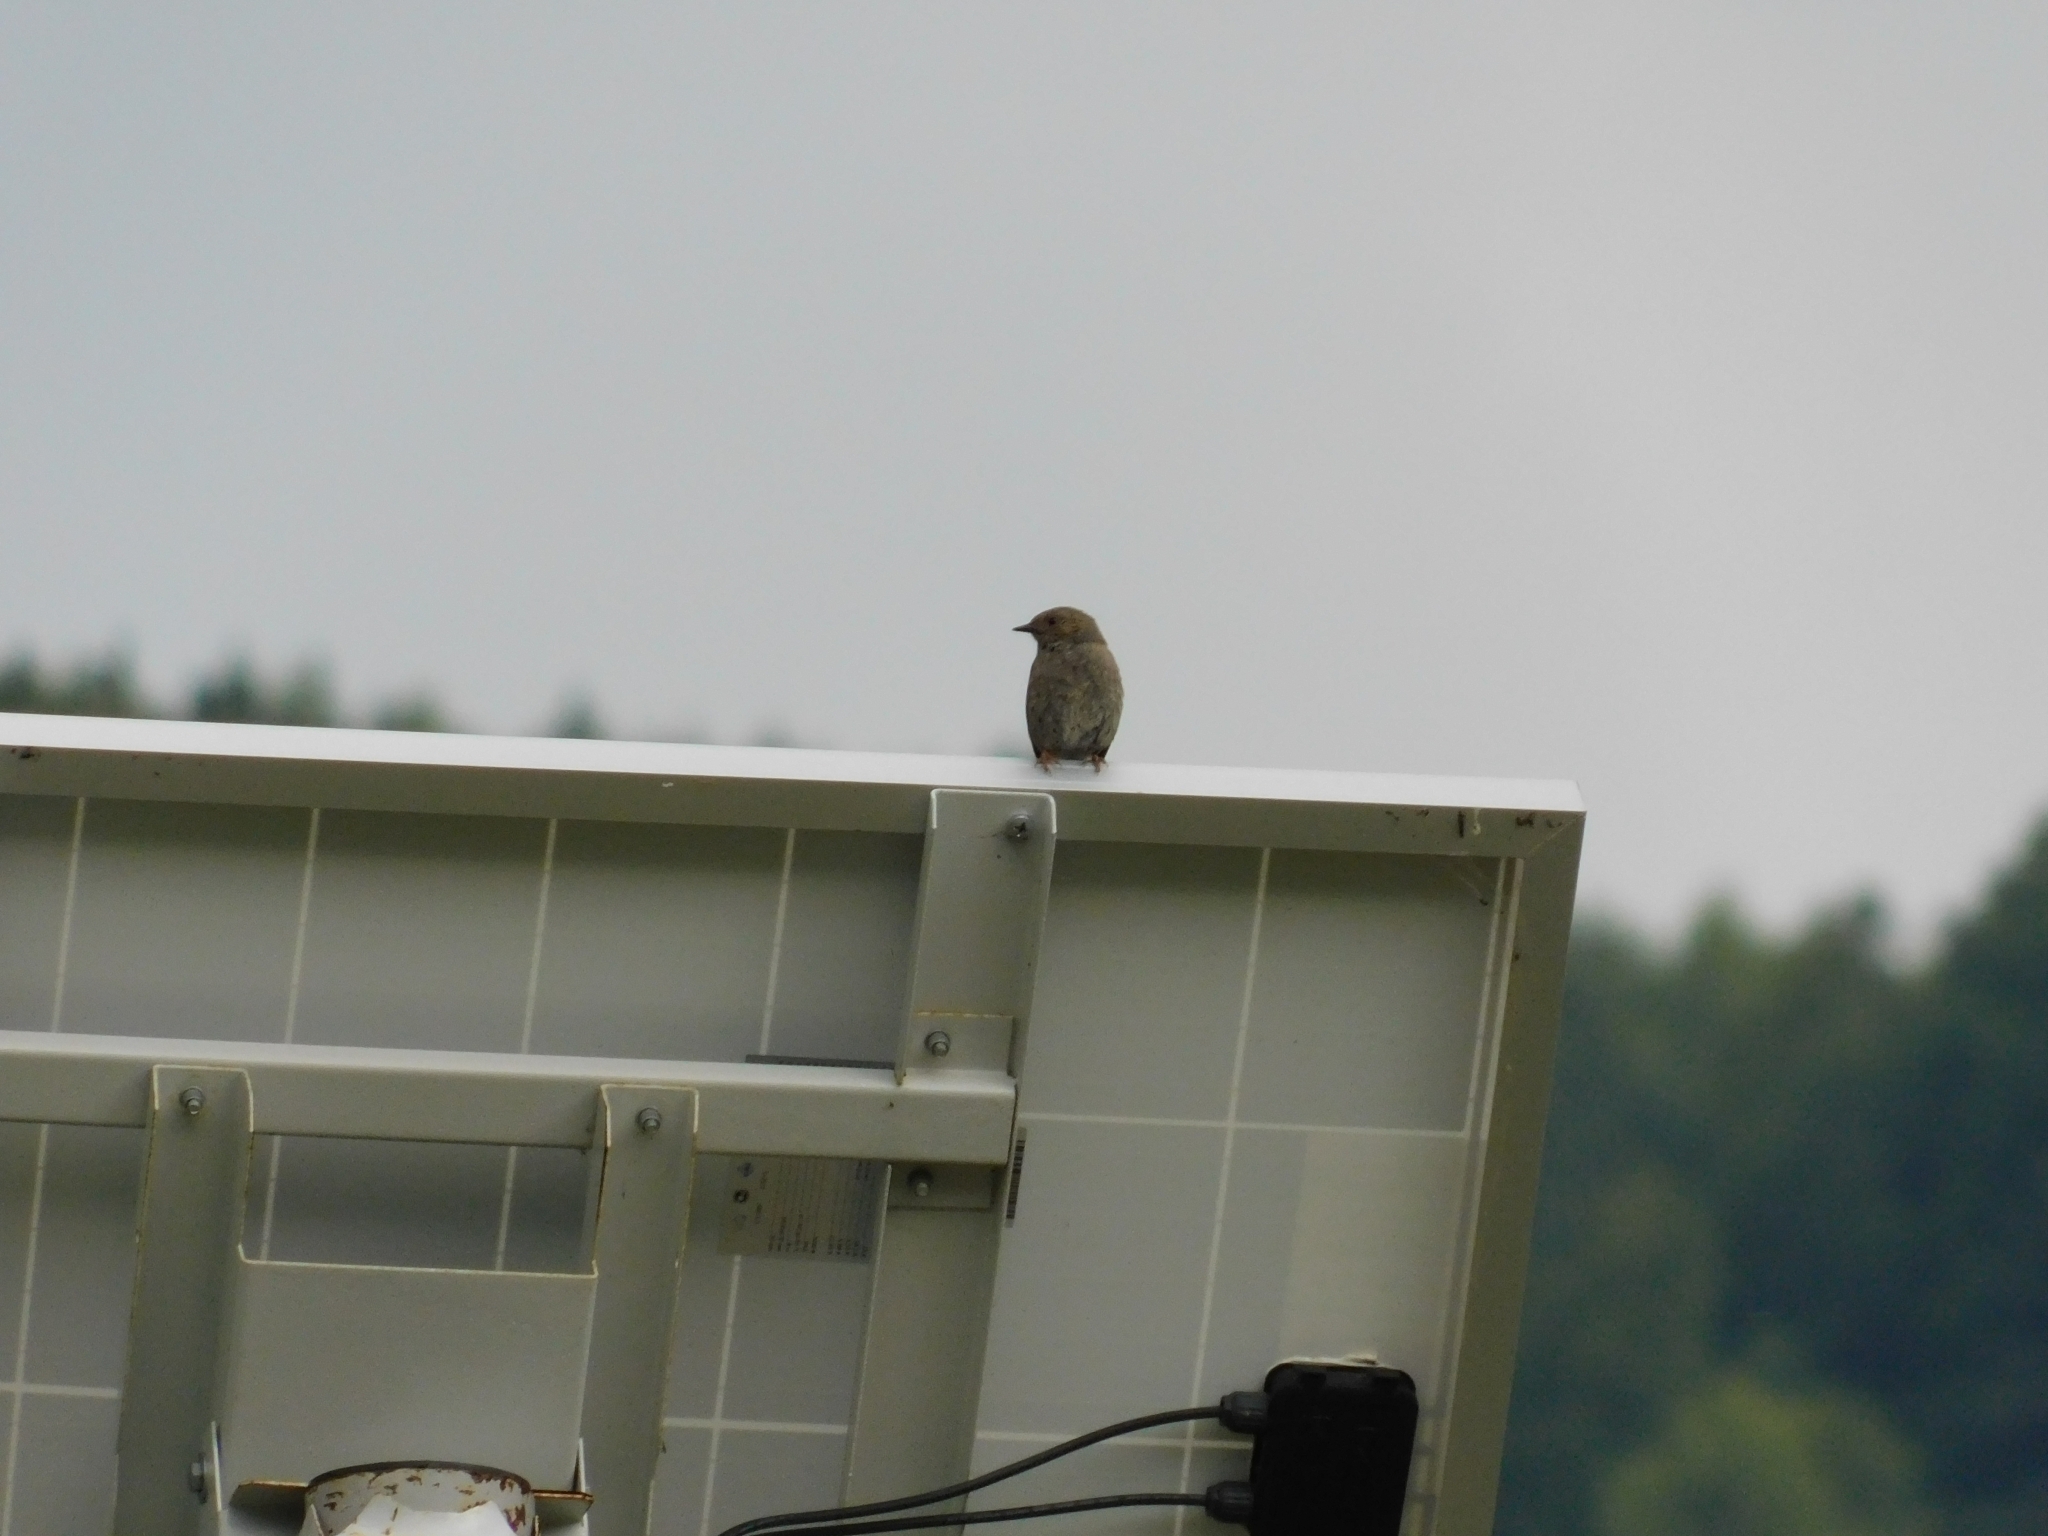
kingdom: Animalia
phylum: Chordata
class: Aves
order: Passeriformes
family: Prunellidae
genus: Prunella
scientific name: Prunella modularis
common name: Dunnock
